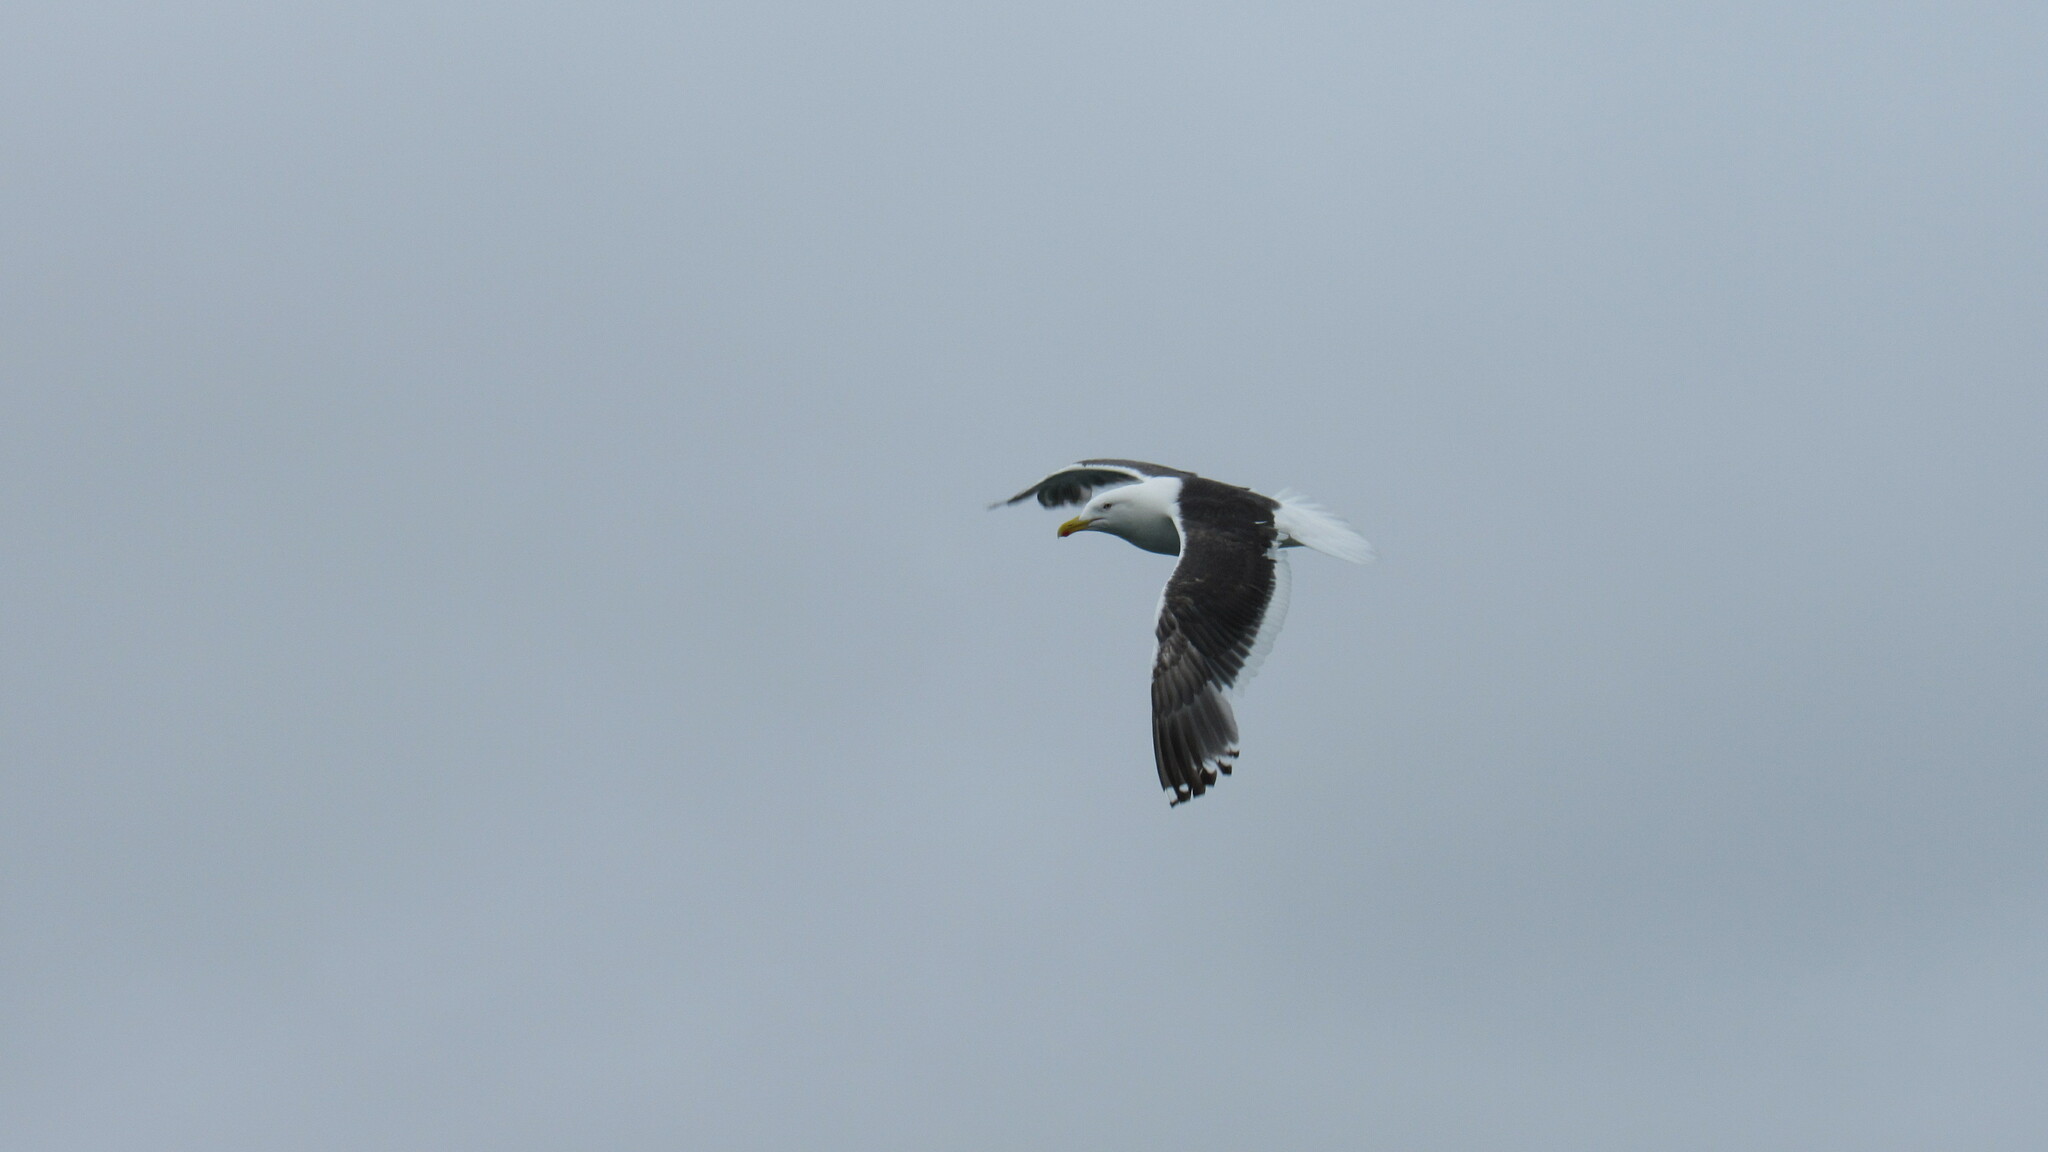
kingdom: Animalia
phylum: Chordata
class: Aves
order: Charadriiformes
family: Laridae
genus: Larus
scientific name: Larus schistisagus
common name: Slaty-backed gull
